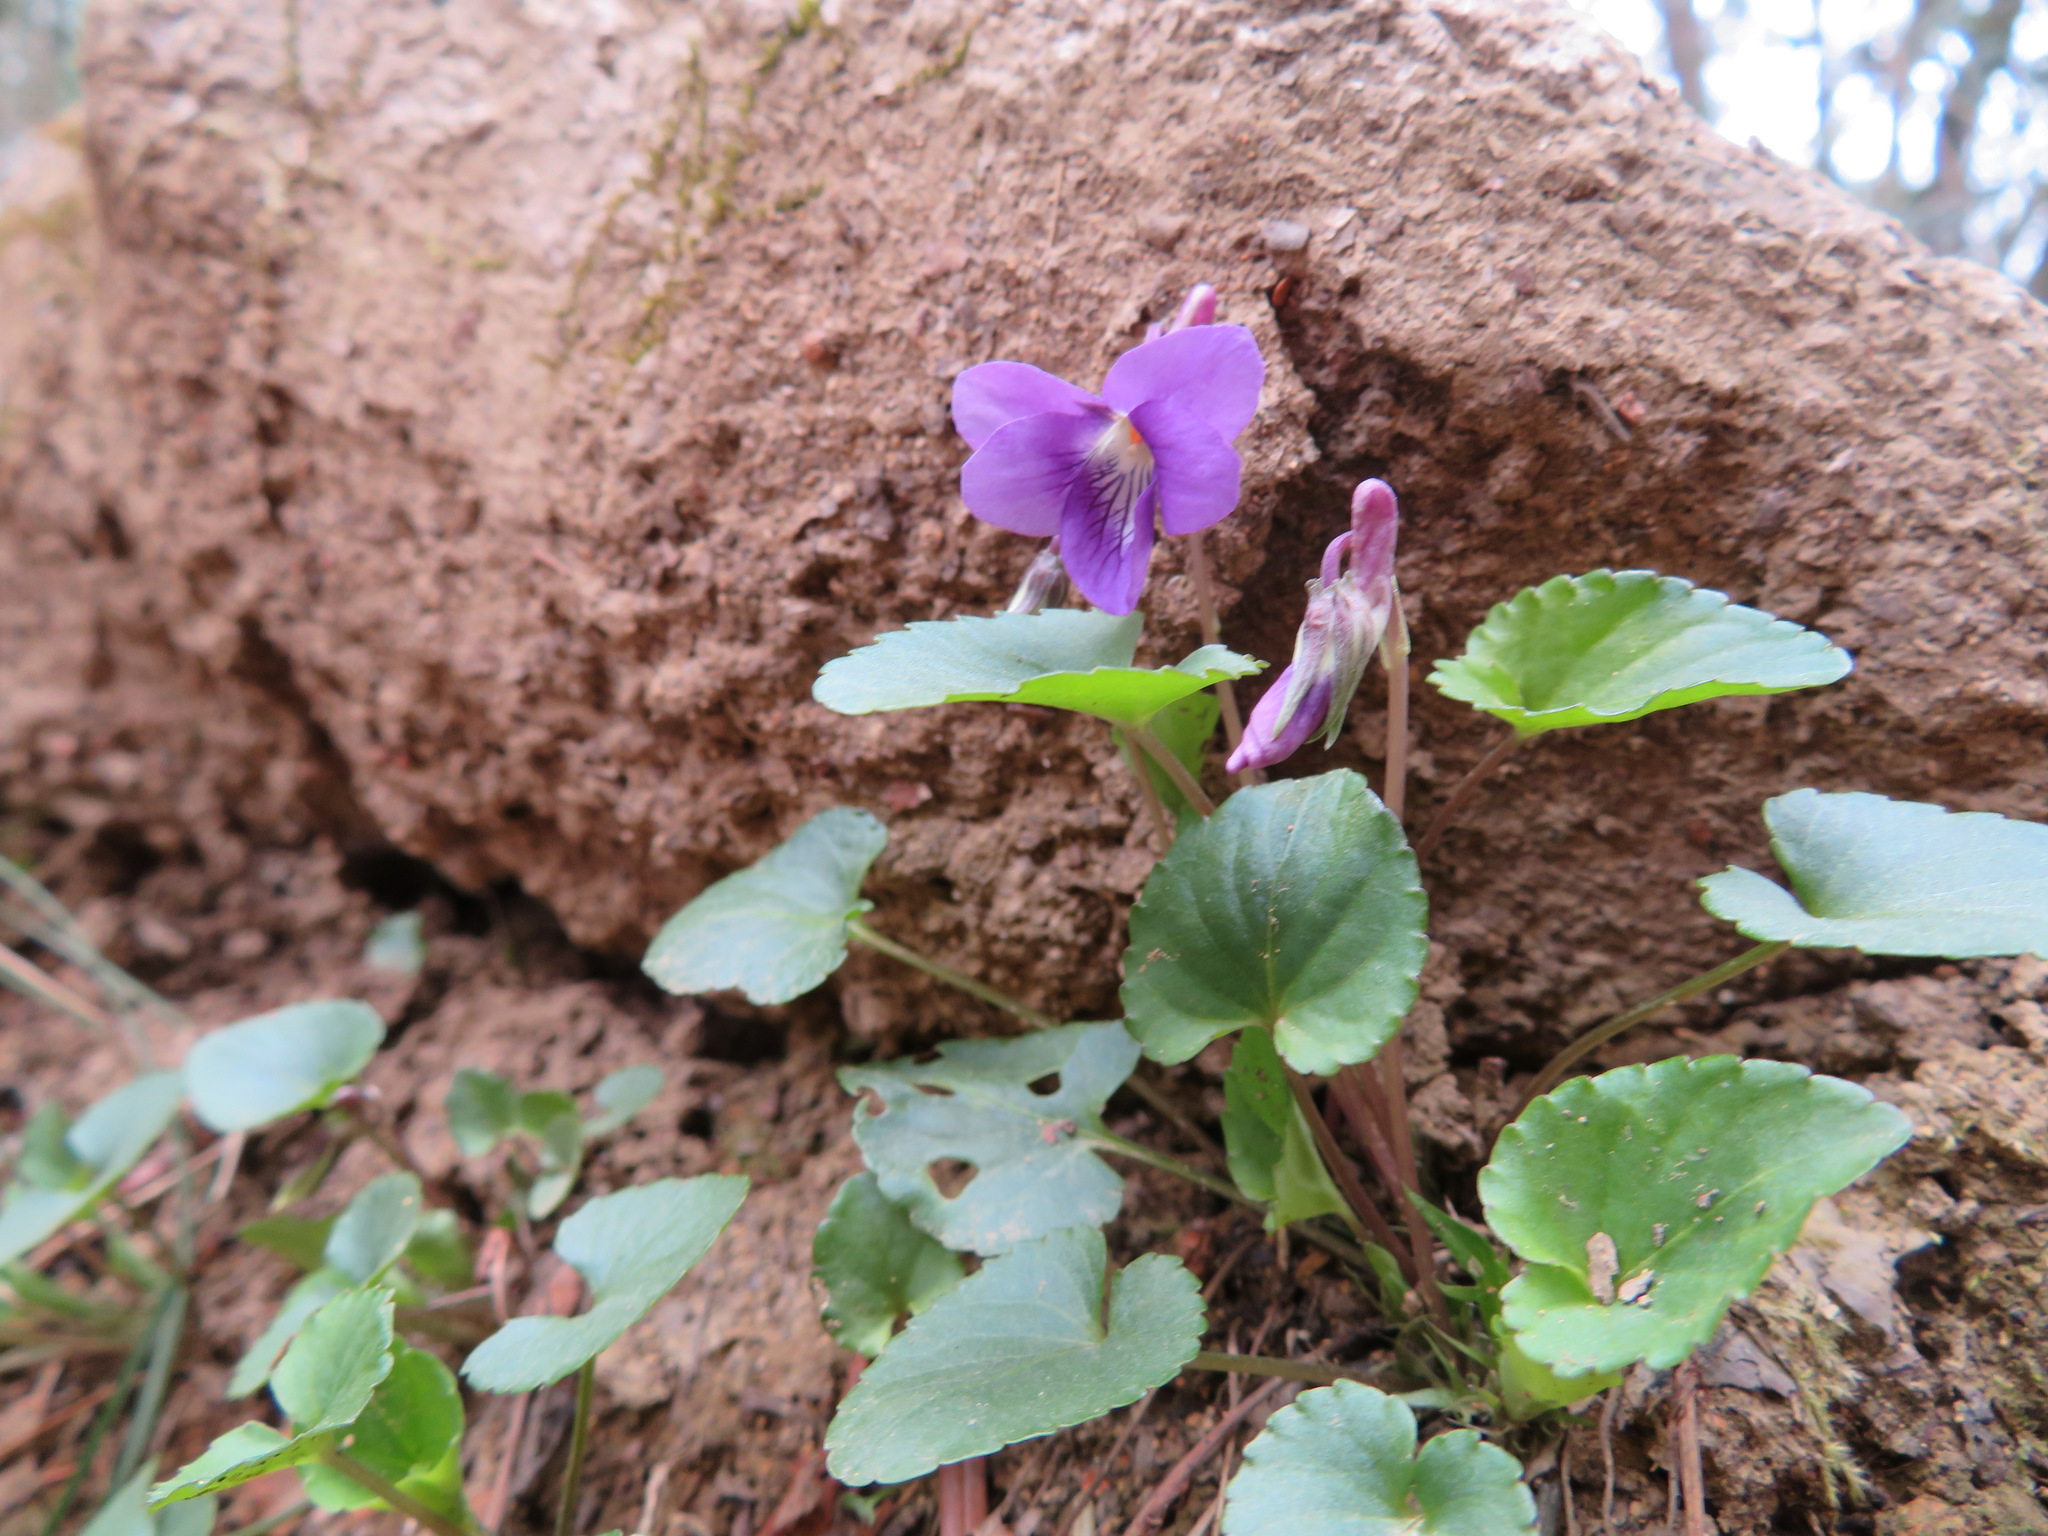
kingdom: Plantae
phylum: Tracheophyta
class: Magnoliopsida
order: Malpighiales
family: Violaceae
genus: Viola
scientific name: Viola obtusa
